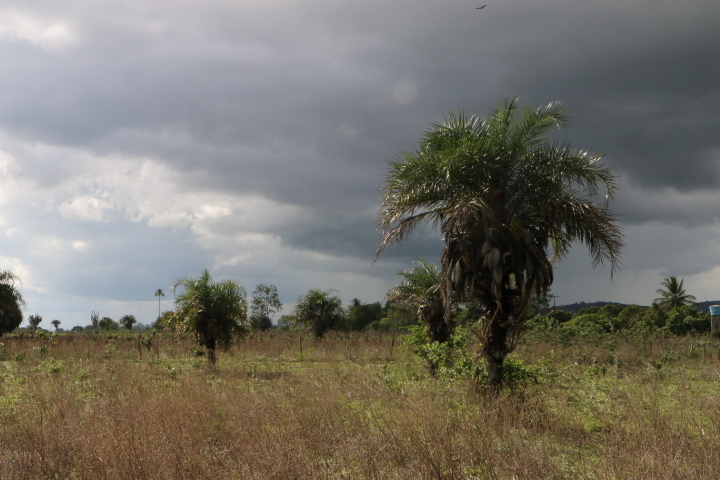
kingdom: Plantae
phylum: Tracheophyta
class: Liliopsida
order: Arecales
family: Arecaceae
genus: Syagrus
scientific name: Syagrus coronata
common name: Licuri palm
